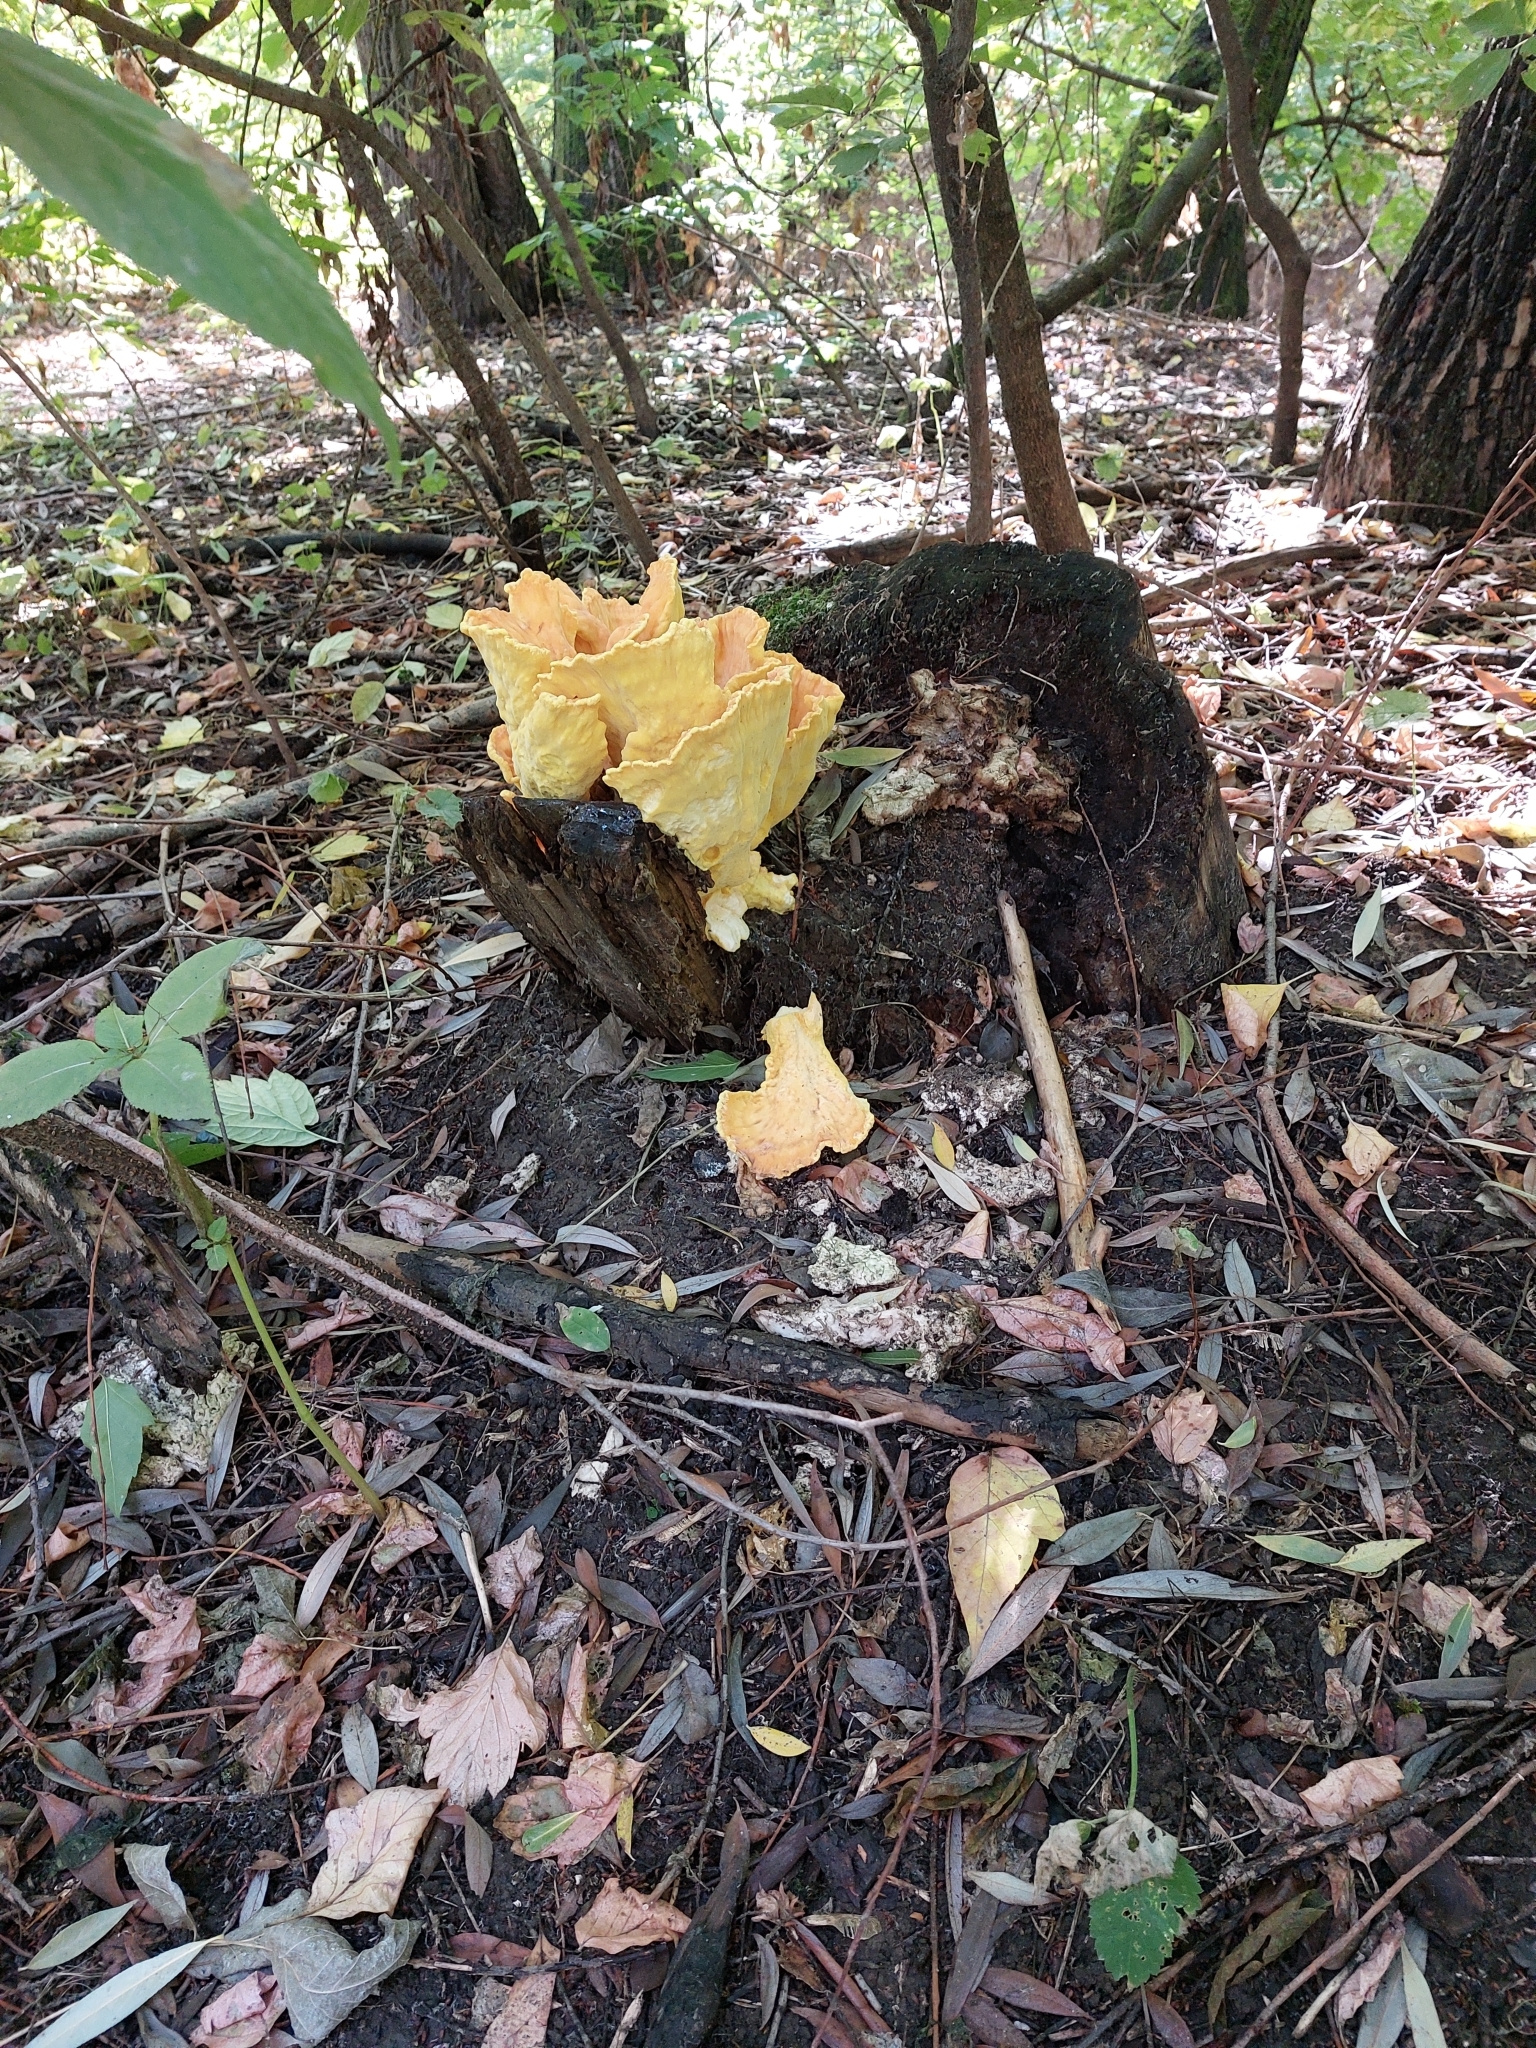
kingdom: Fungi
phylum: Basidiomycota
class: Agaricomycetes
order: Polyporales
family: Laetiporaceae
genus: Laetiporus
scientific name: Laetiporus sulphureus
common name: Chicken of the woods
